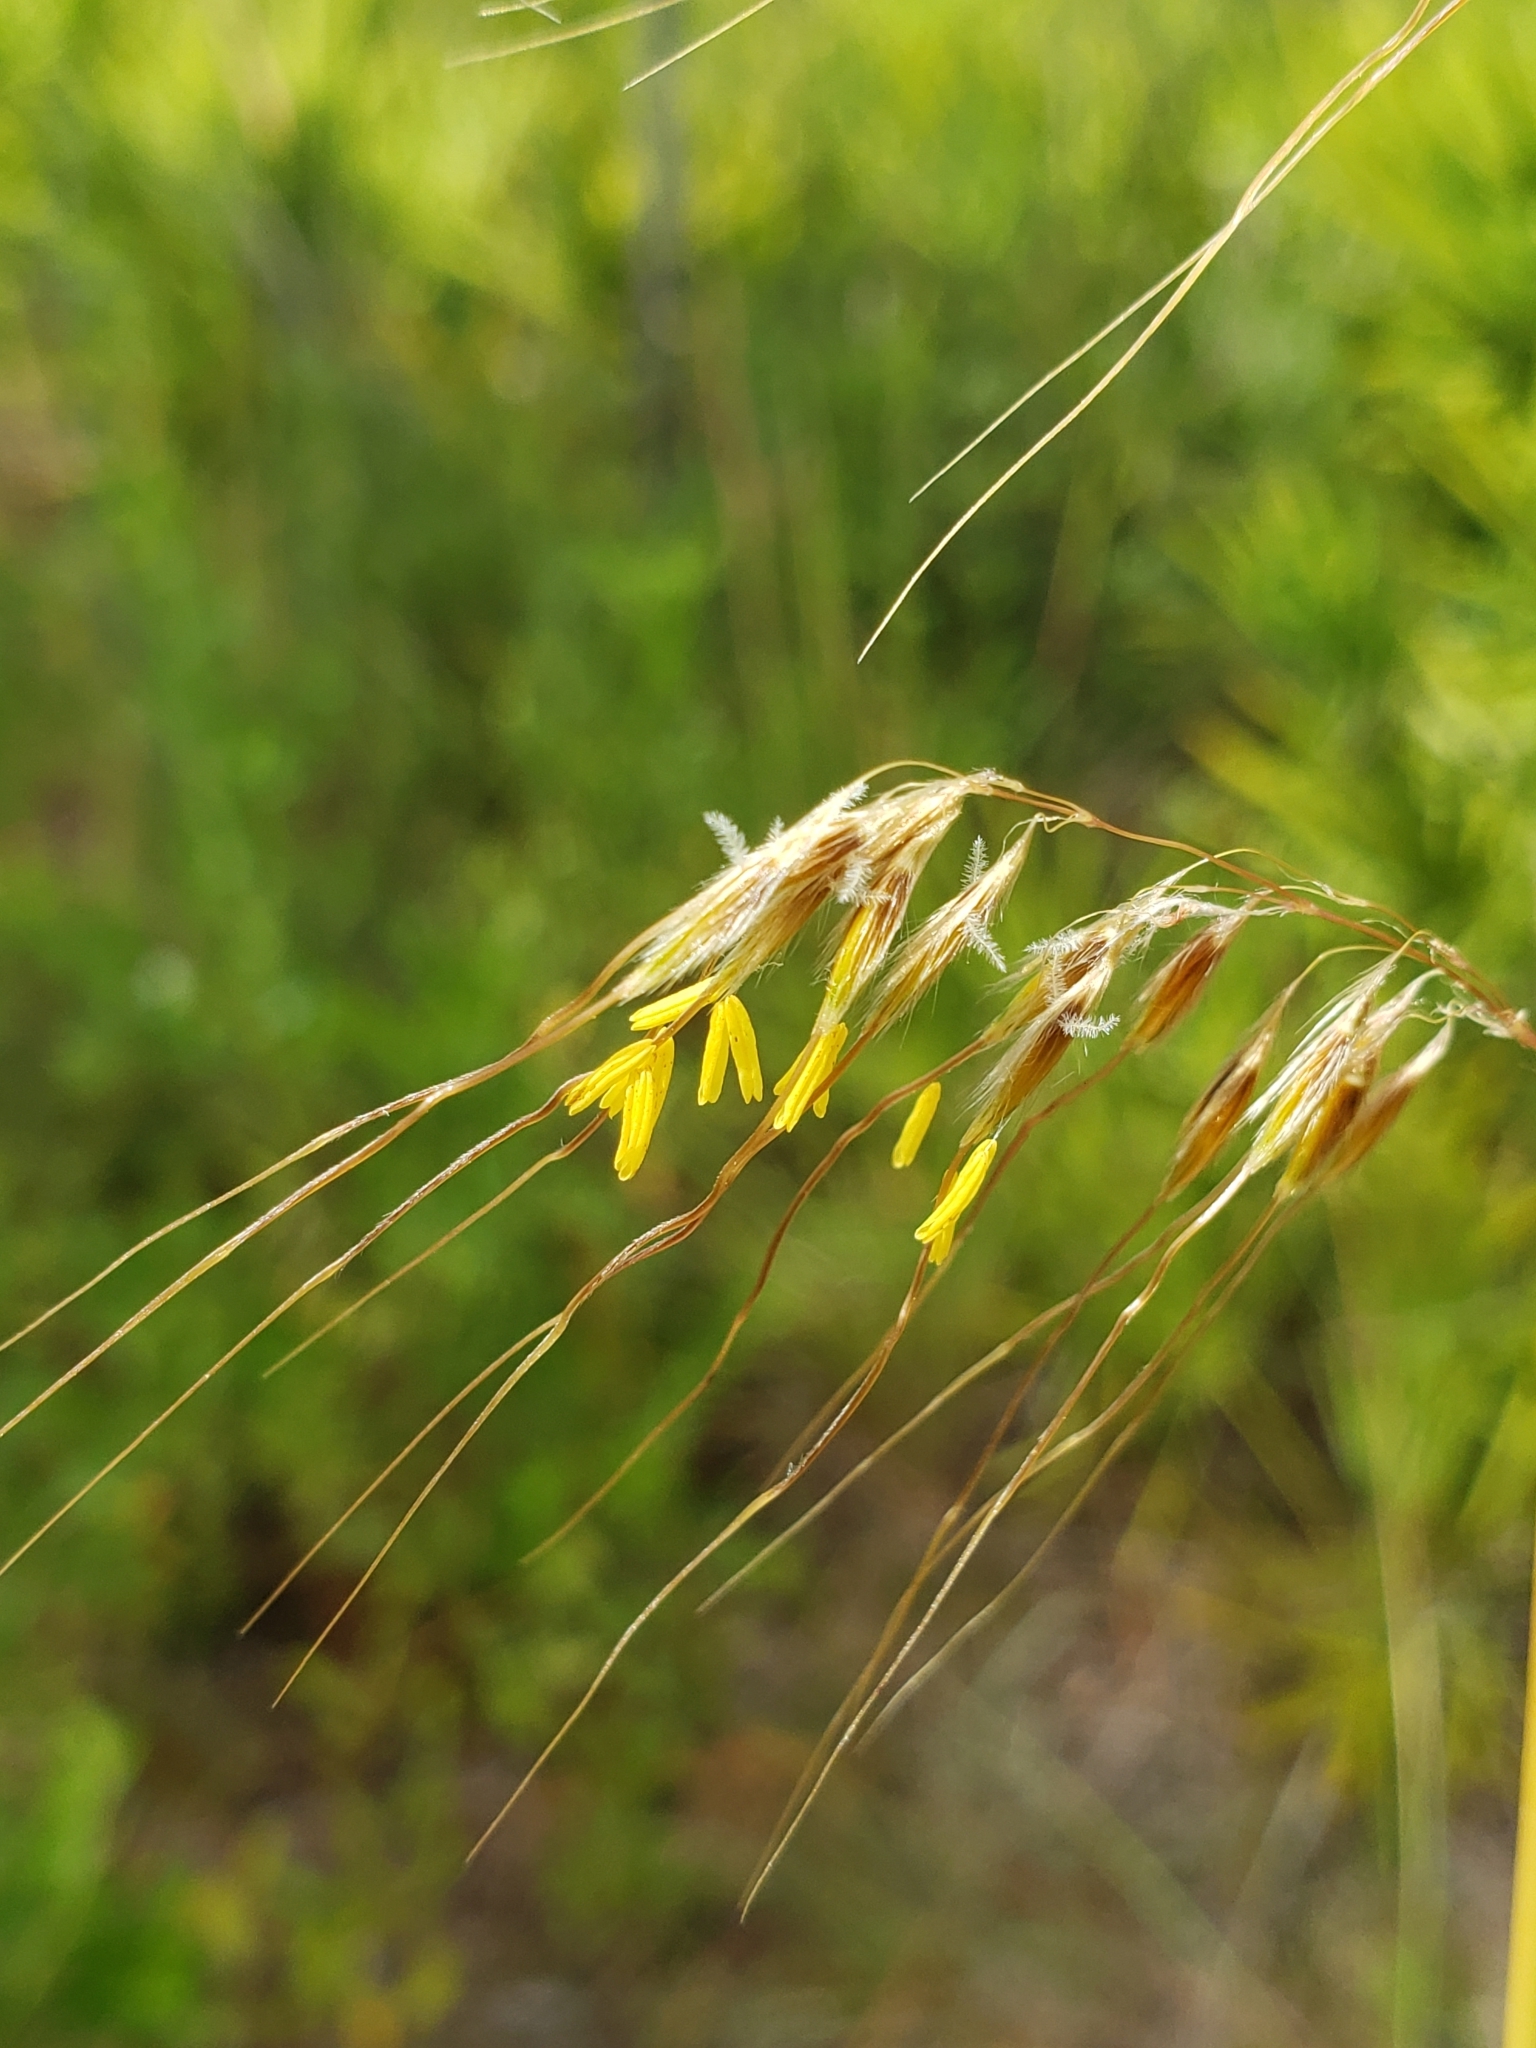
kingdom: Plantae
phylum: Tracheophyta
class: Liliopsida
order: Poales
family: Poaceae
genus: Sorghastrum
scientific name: Sorghastrum secundum
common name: Lopsided indian grass
